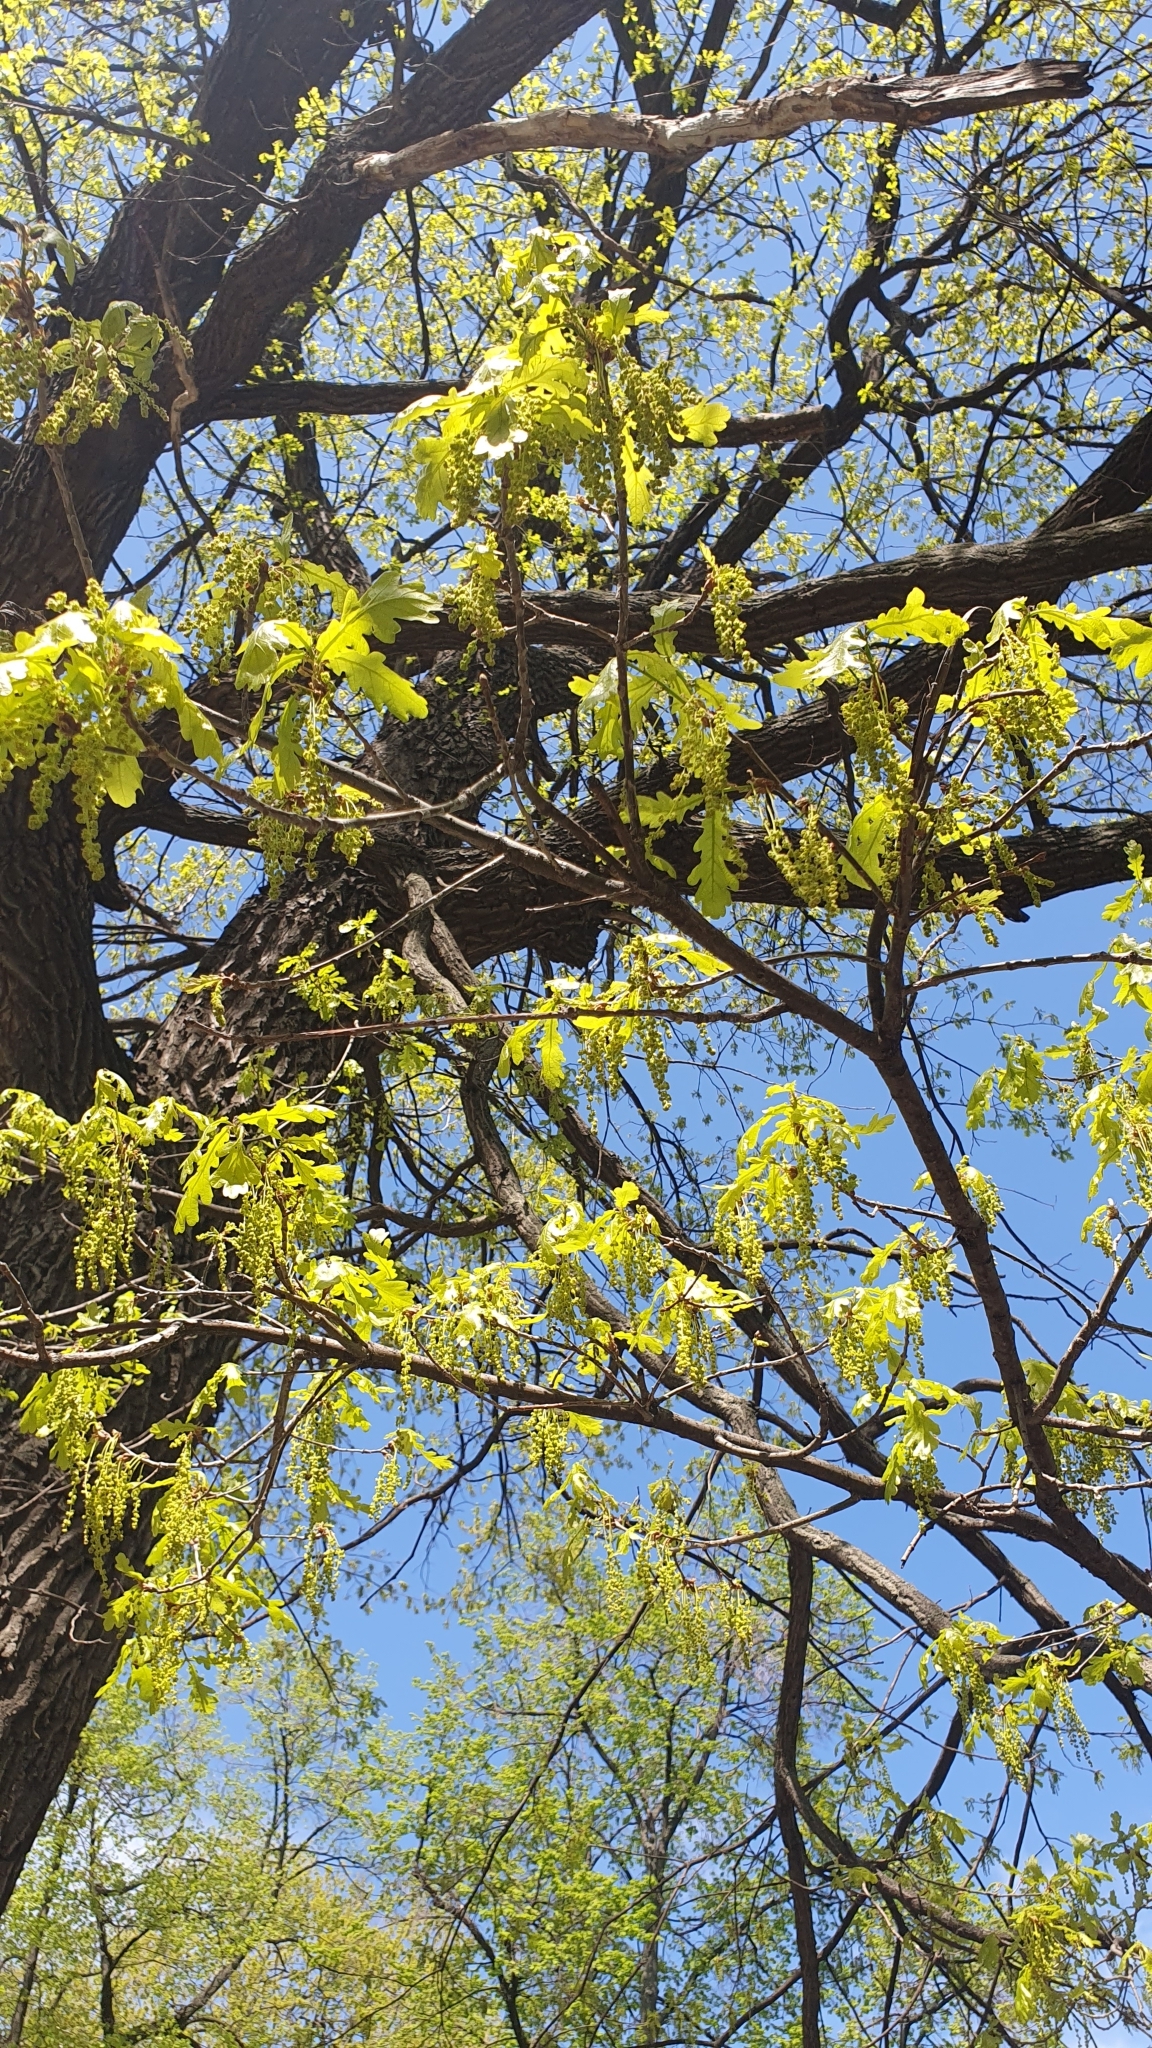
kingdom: Plantae
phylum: Tracheophyta
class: Magnoliopsida
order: Fagales
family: Fagaceae
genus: Quercus
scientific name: Quercus robur
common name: Pedunculate oak
